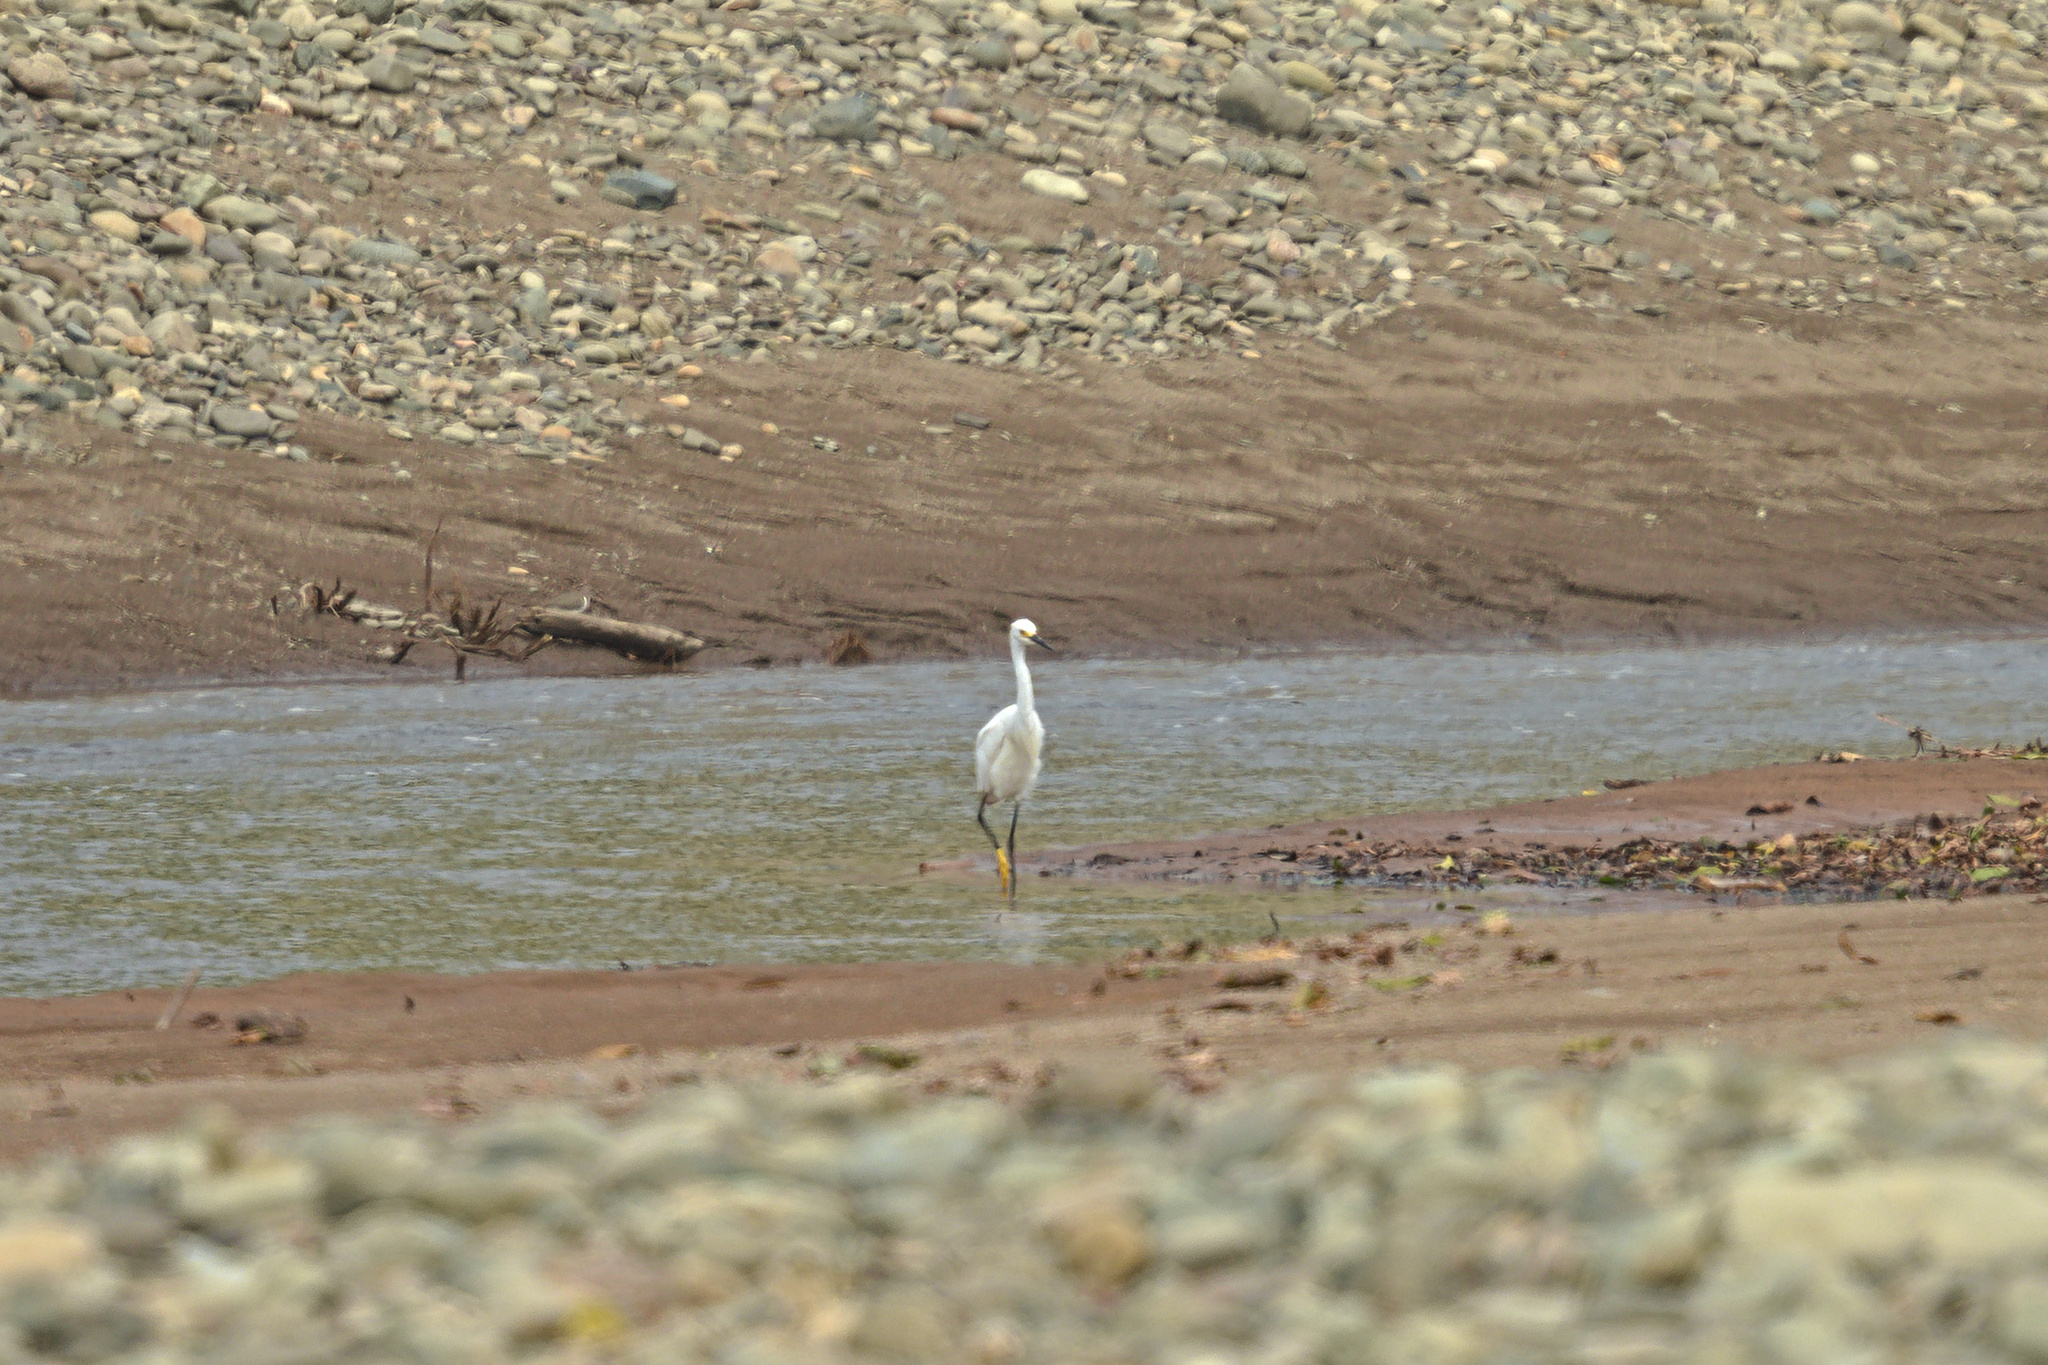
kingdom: Animalia
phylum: Chordata
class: Aves
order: Pelecaniformes
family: Ardeidae
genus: Egretta
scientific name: Egretta thula
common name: Snowy egret
